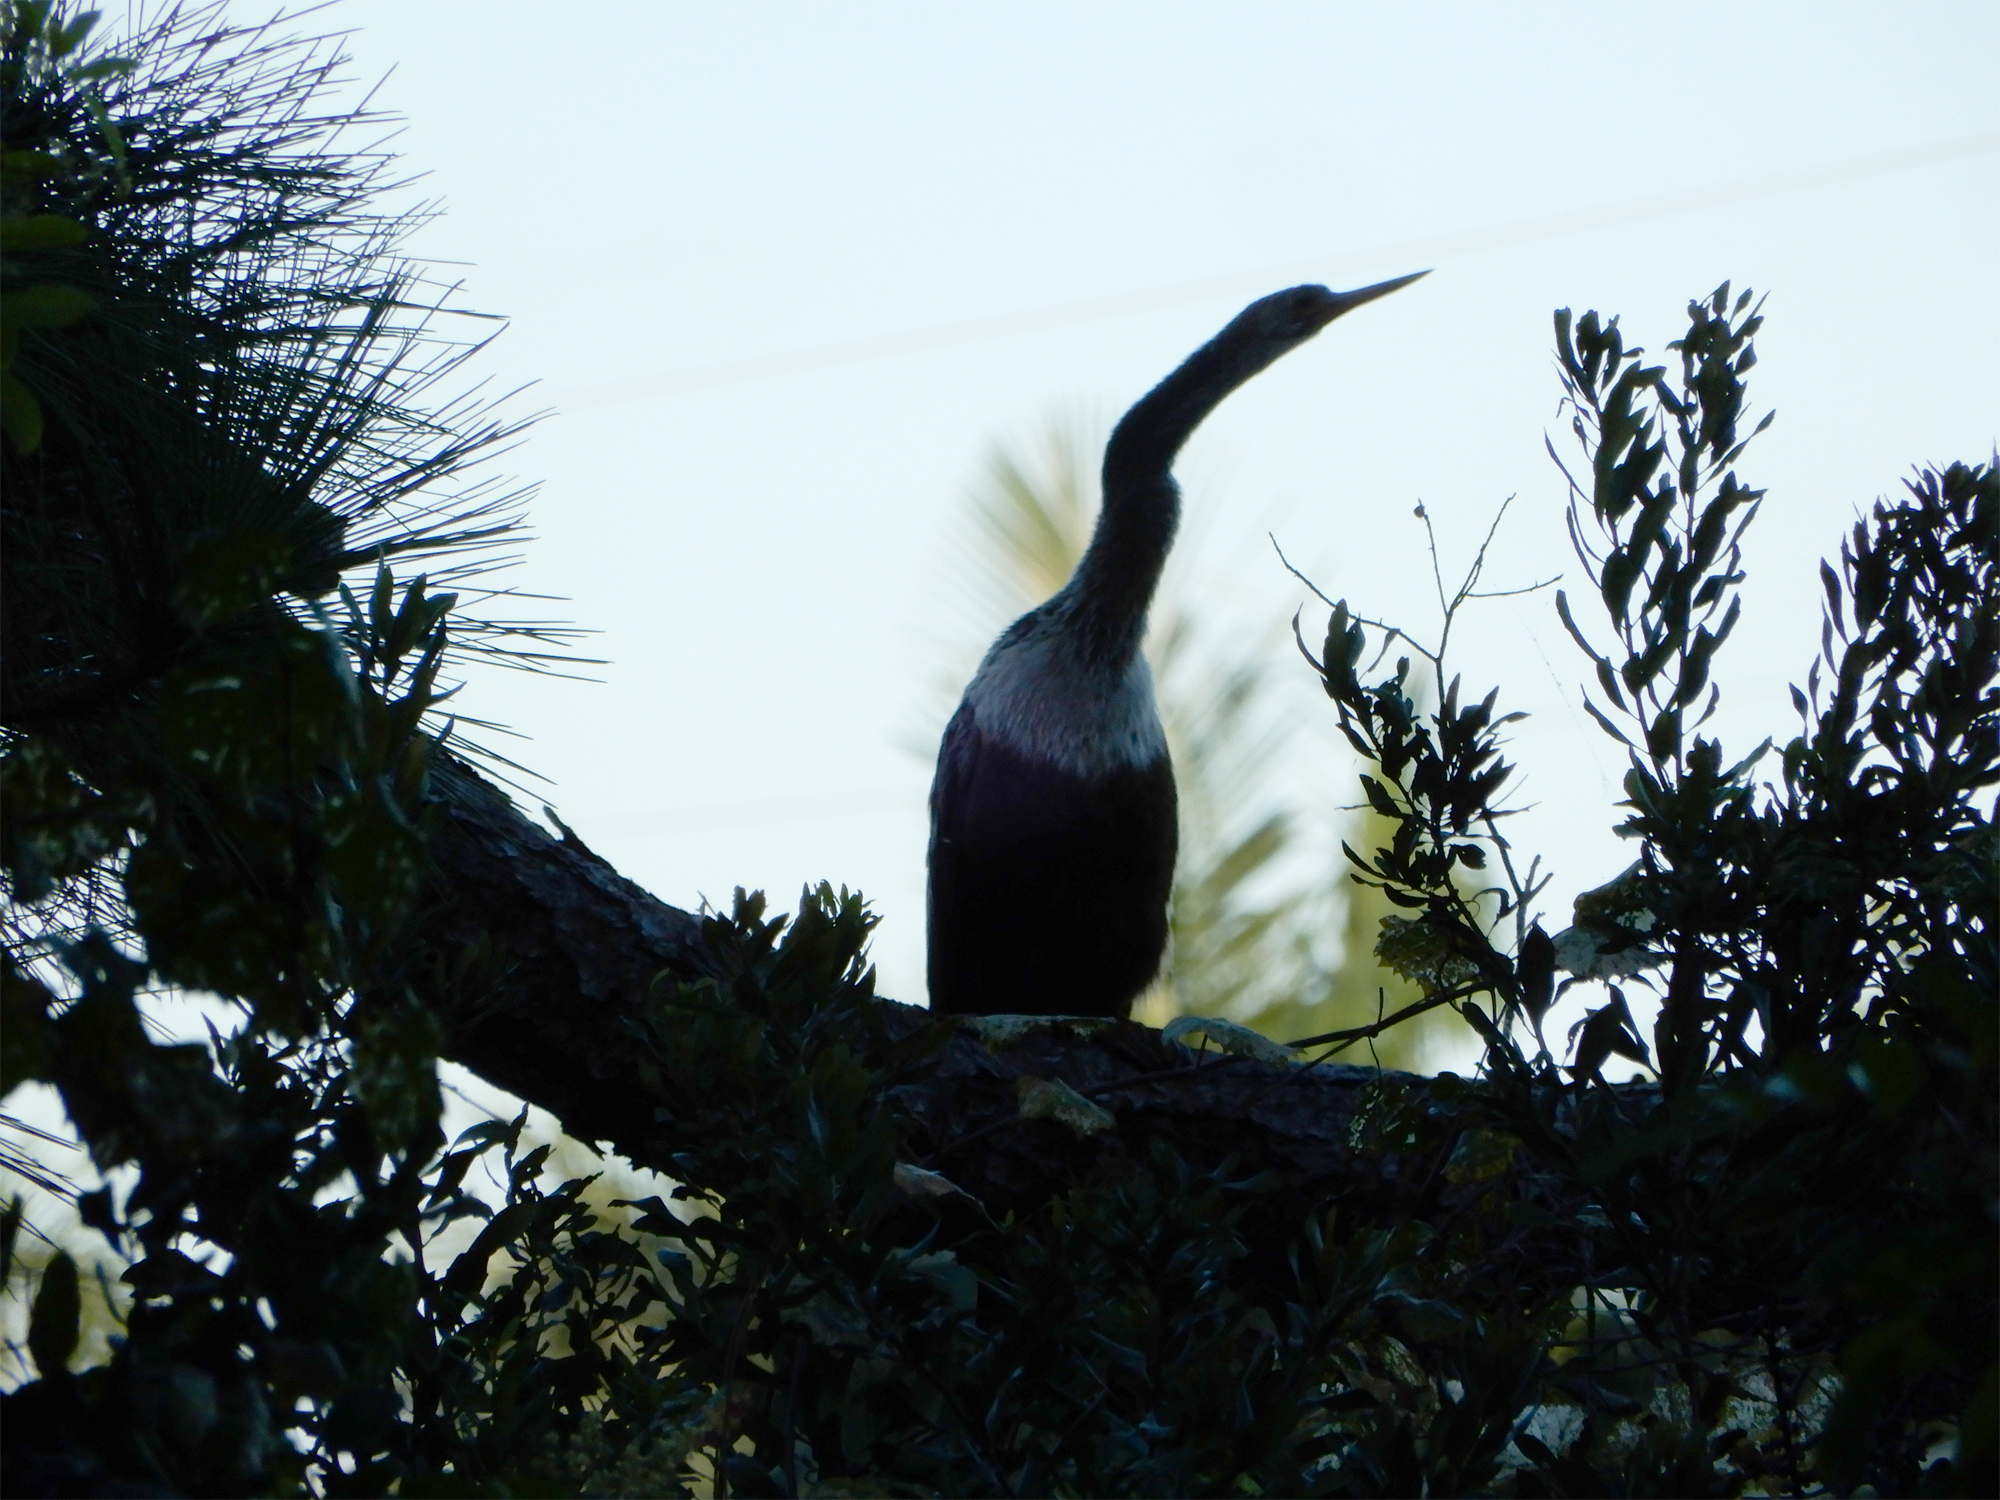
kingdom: Animalia
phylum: Chordata
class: Aves
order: Suliformes
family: Anhingidae
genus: Anhinga
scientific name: Anhinga anhinga
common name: Anhinga
